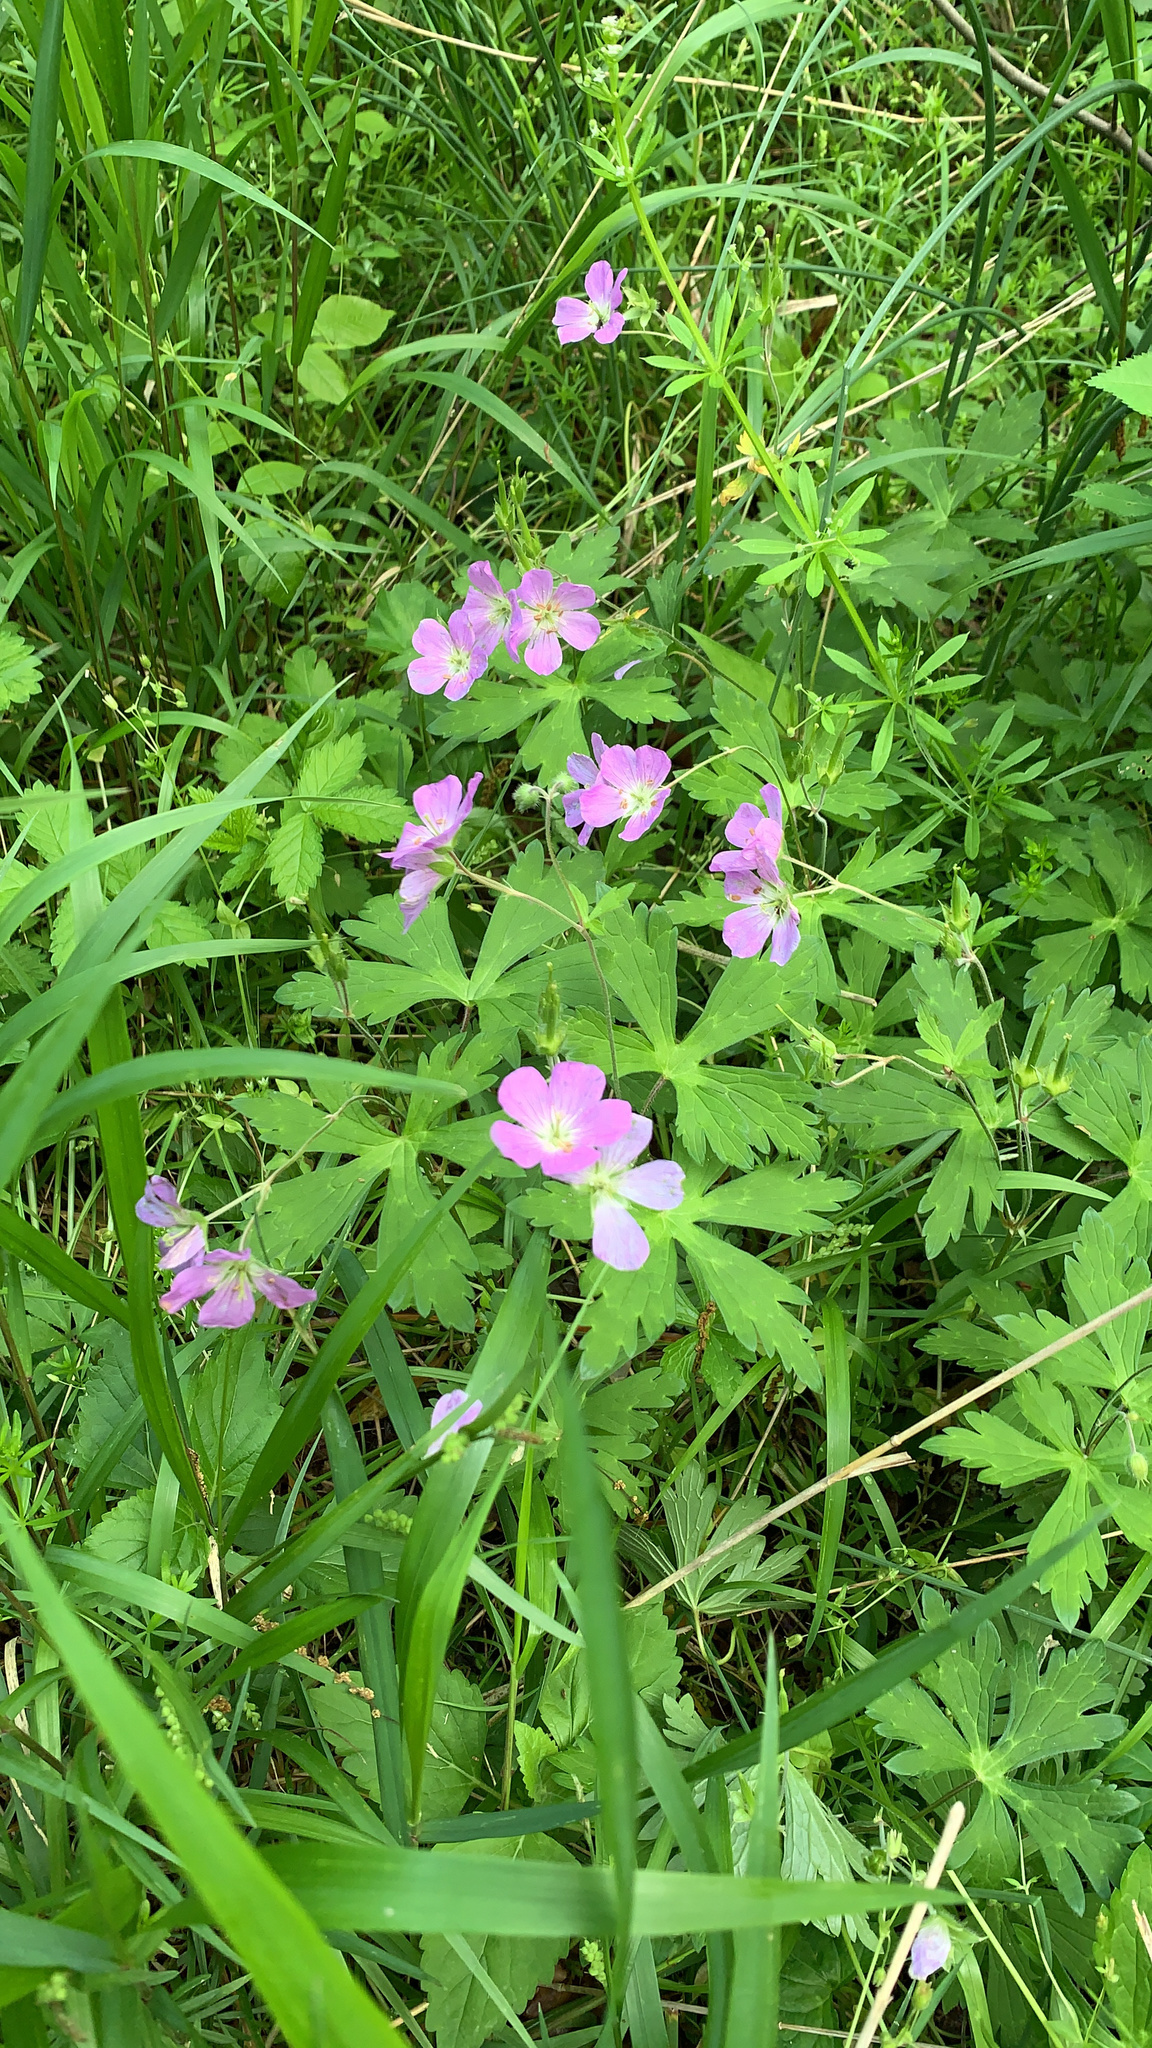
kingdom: Plantae
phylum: Tracheophyta
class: Magnoliopsida
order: Geraniales
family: Geraniaceae
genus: Geranium
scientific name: Geranium maculatum
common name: Spotted geranium
